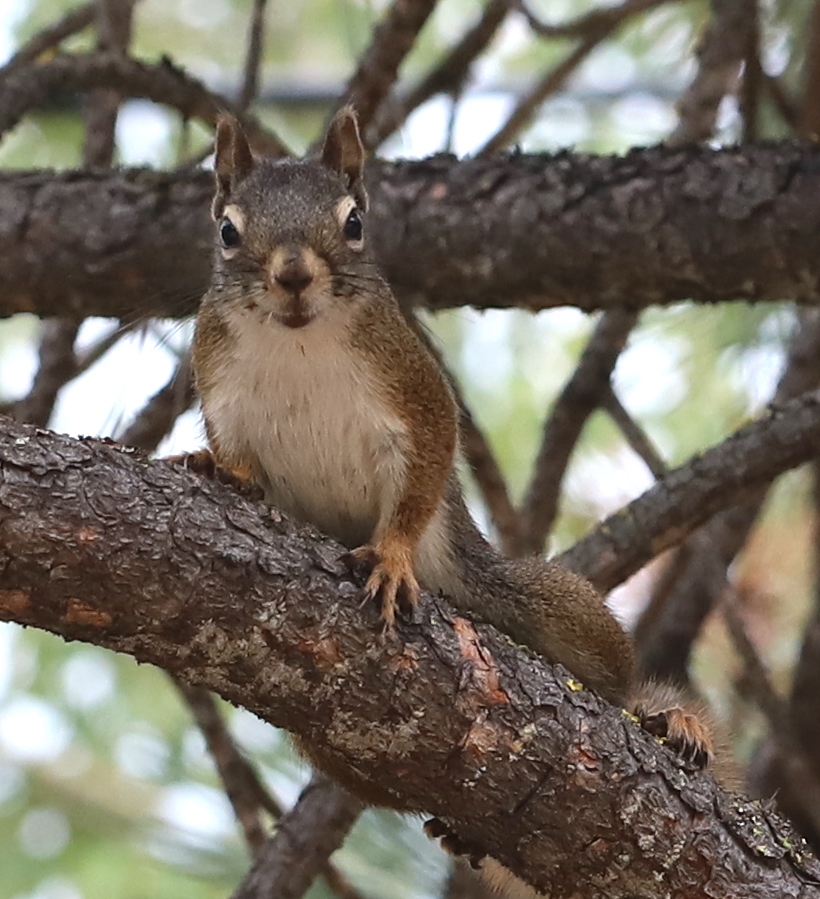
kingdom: Animalia
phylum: Chordata
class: Mammalia
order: Rodentia
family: Sciuridae
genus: Tamiasciurus
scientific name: Tamiasciurus hudsonicus
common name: Red squirrel
